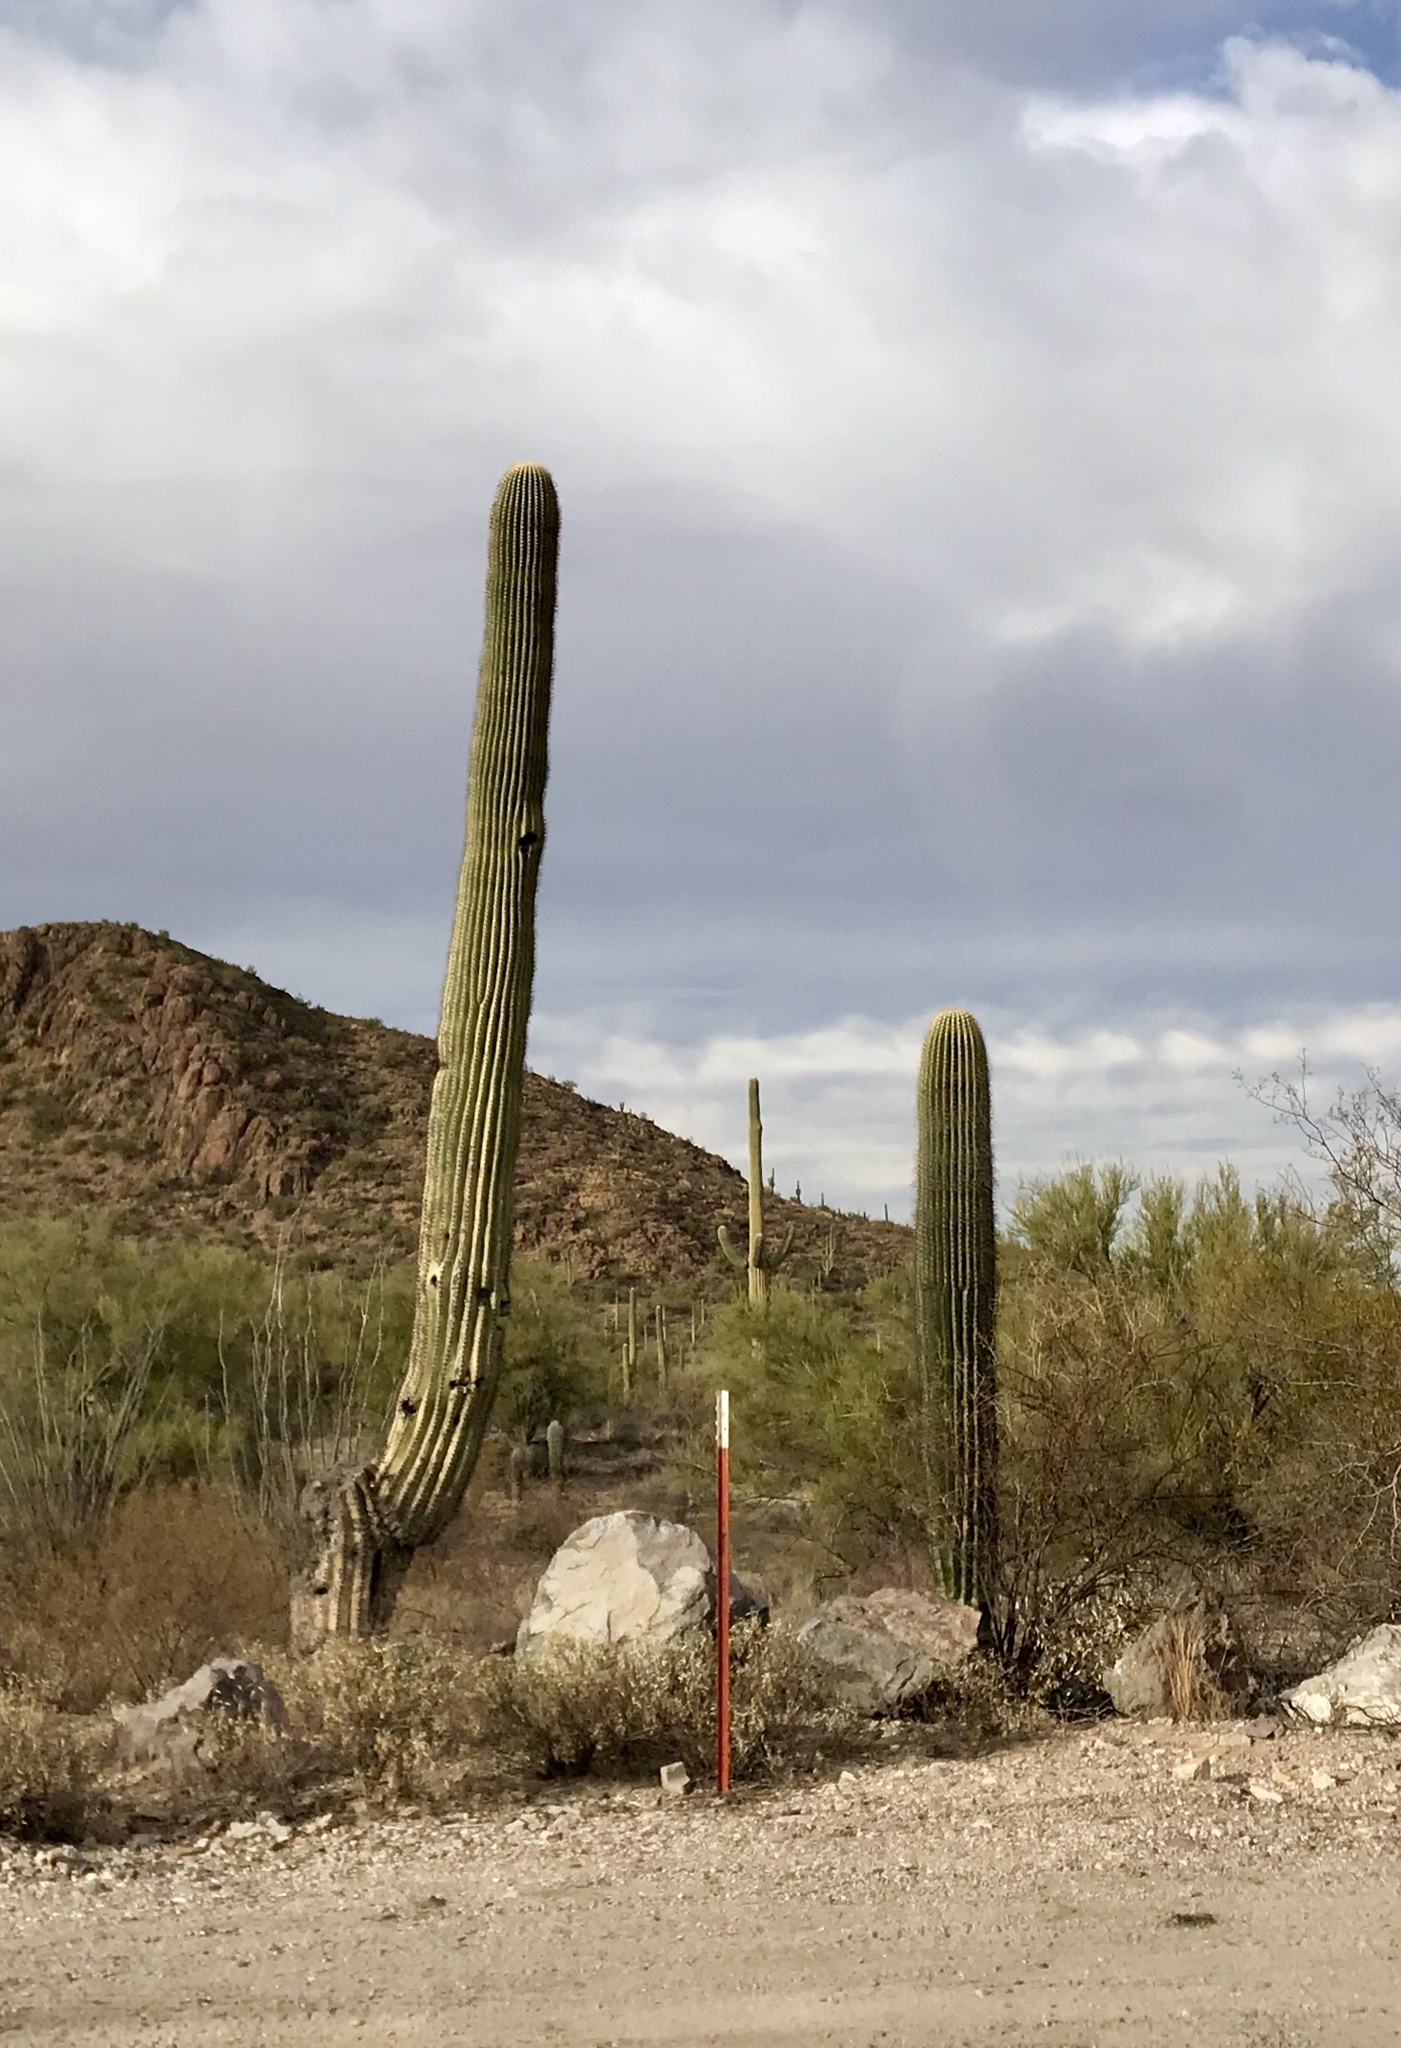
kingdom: Plantae
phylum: Tracheophyta
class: Magnoliopsida
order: Caryophyllales
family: Cactaceae
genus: Carnegiea
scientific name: Carnegiea gigantea
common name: Saguaro
